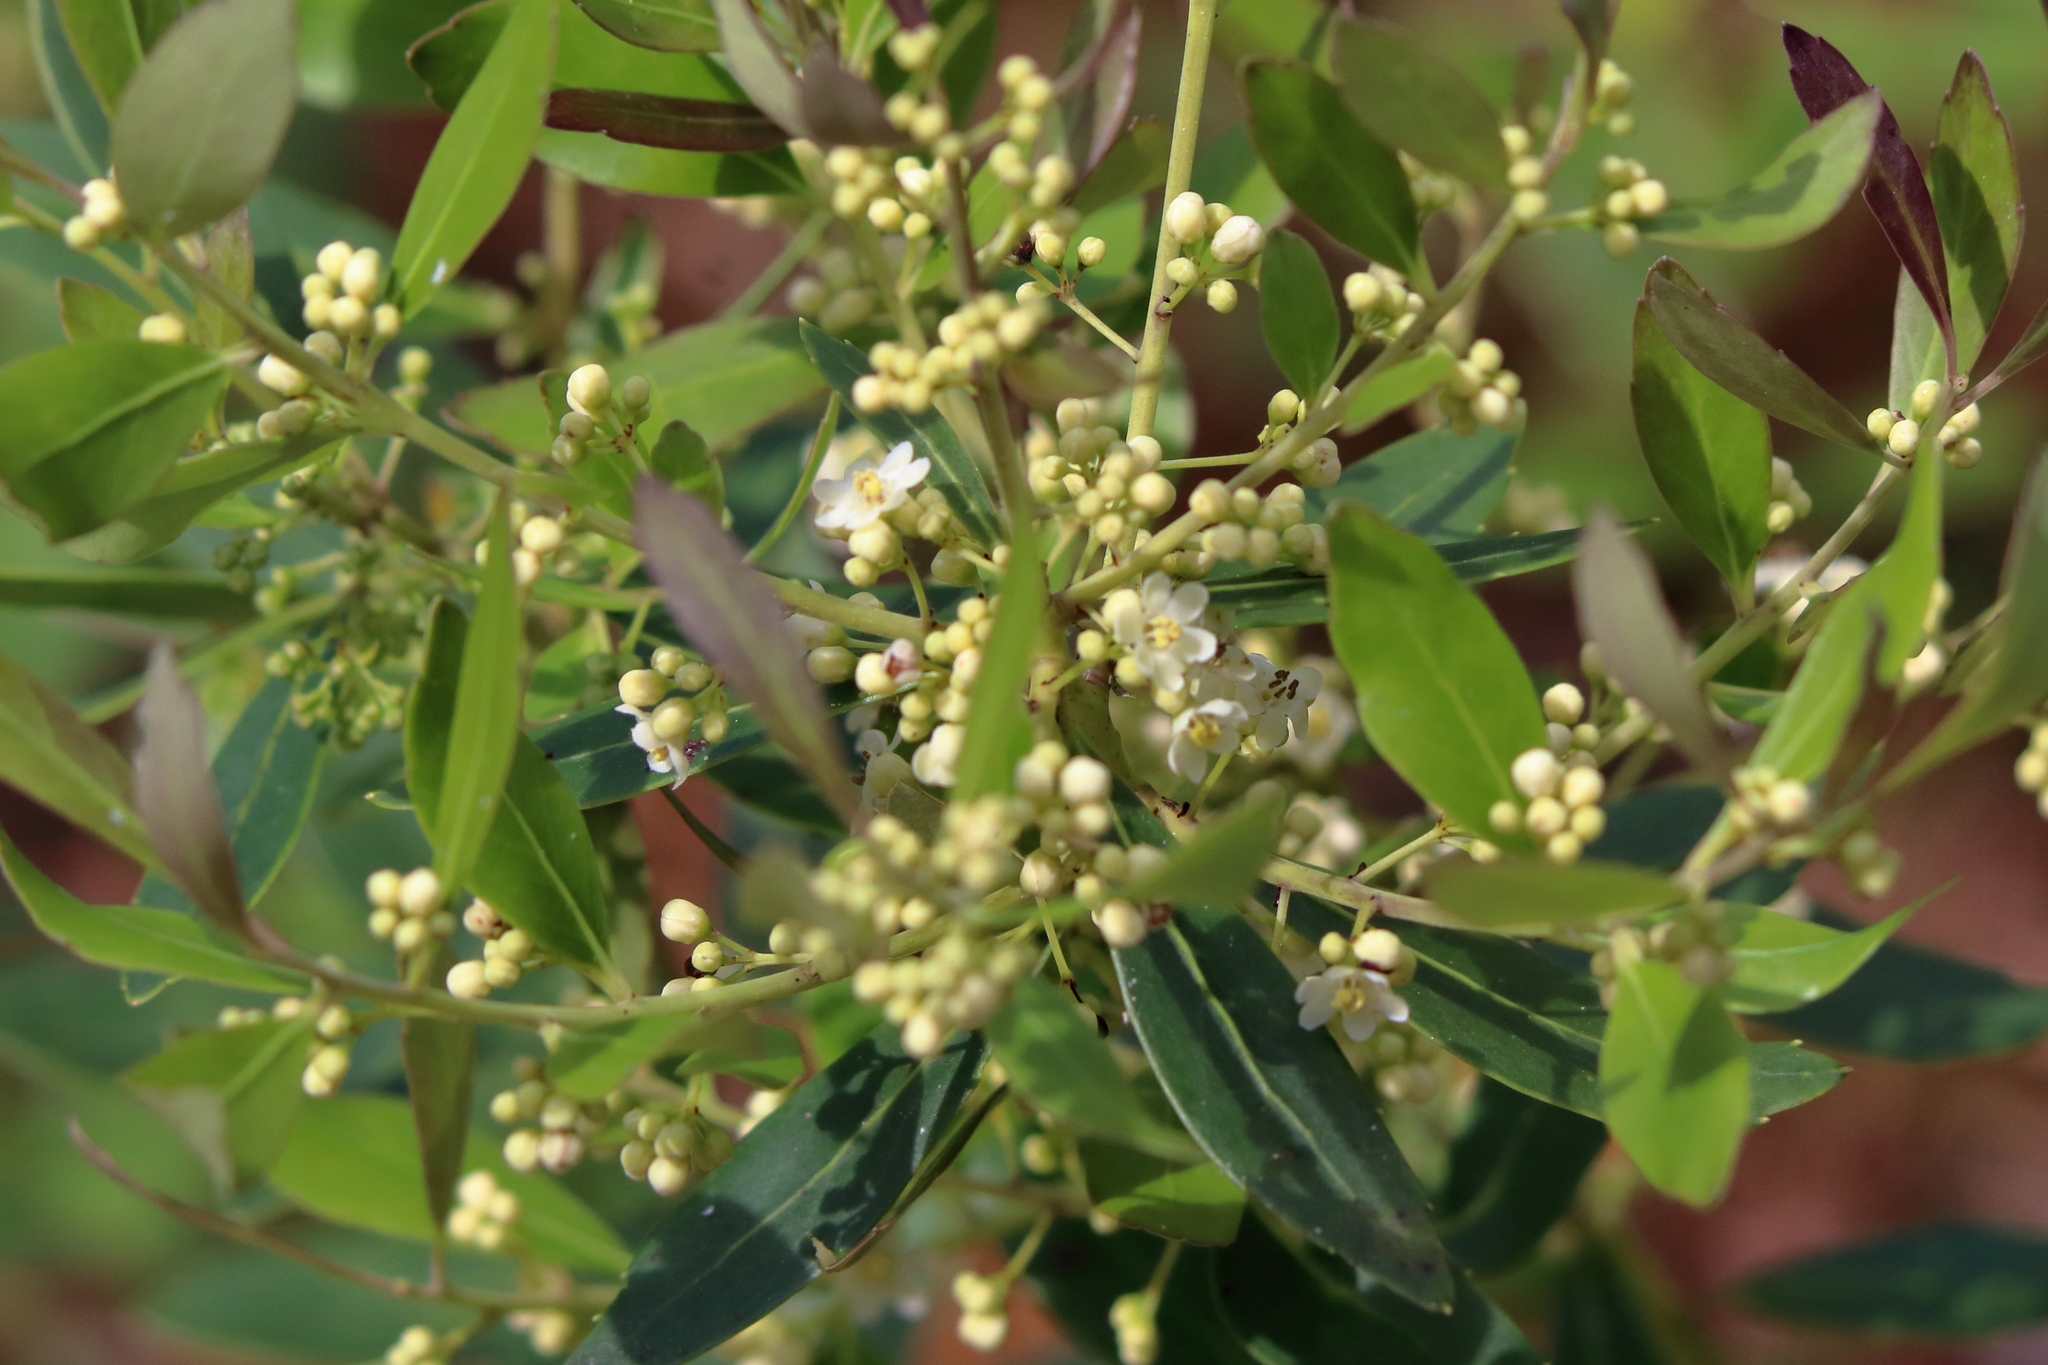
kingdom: Plantae
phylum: Tracheophyta
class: Magnoliopsida
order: Aquifoliales
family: Aquifoliaceae
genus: Ilex
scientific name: Ilex glabra
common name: Bitter gallberry
